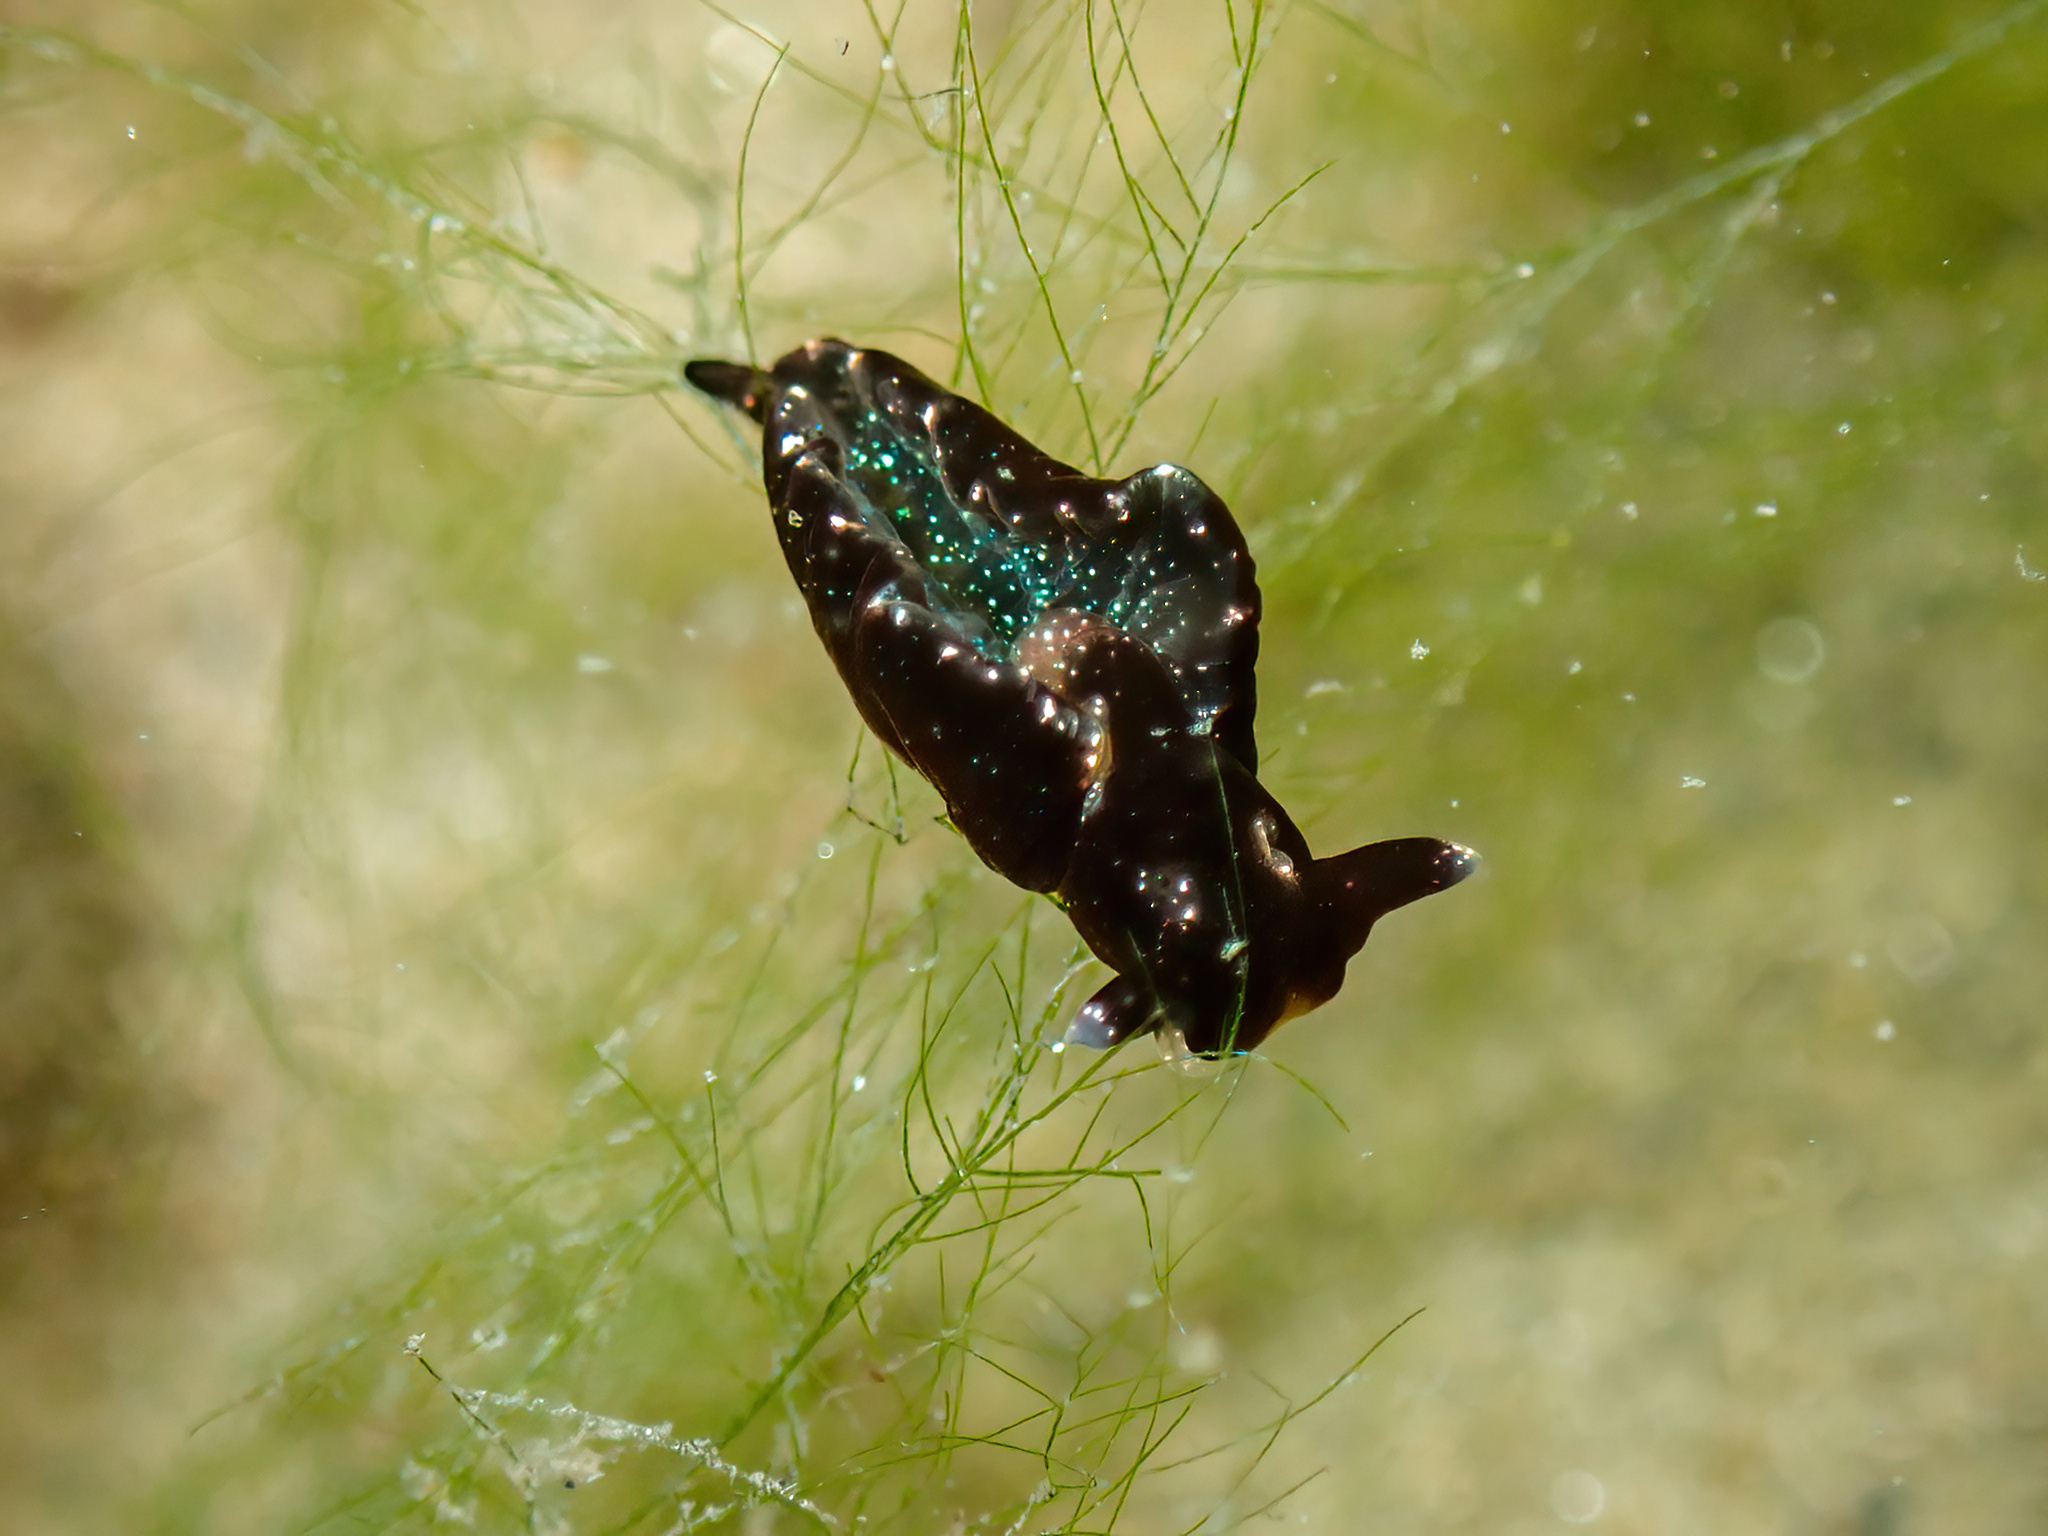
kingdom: Animalia
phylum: Mollusca
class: Gastropoda
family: Plakobranchidae
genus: Elysia
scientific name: Elysia viridis
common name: Green elysia
